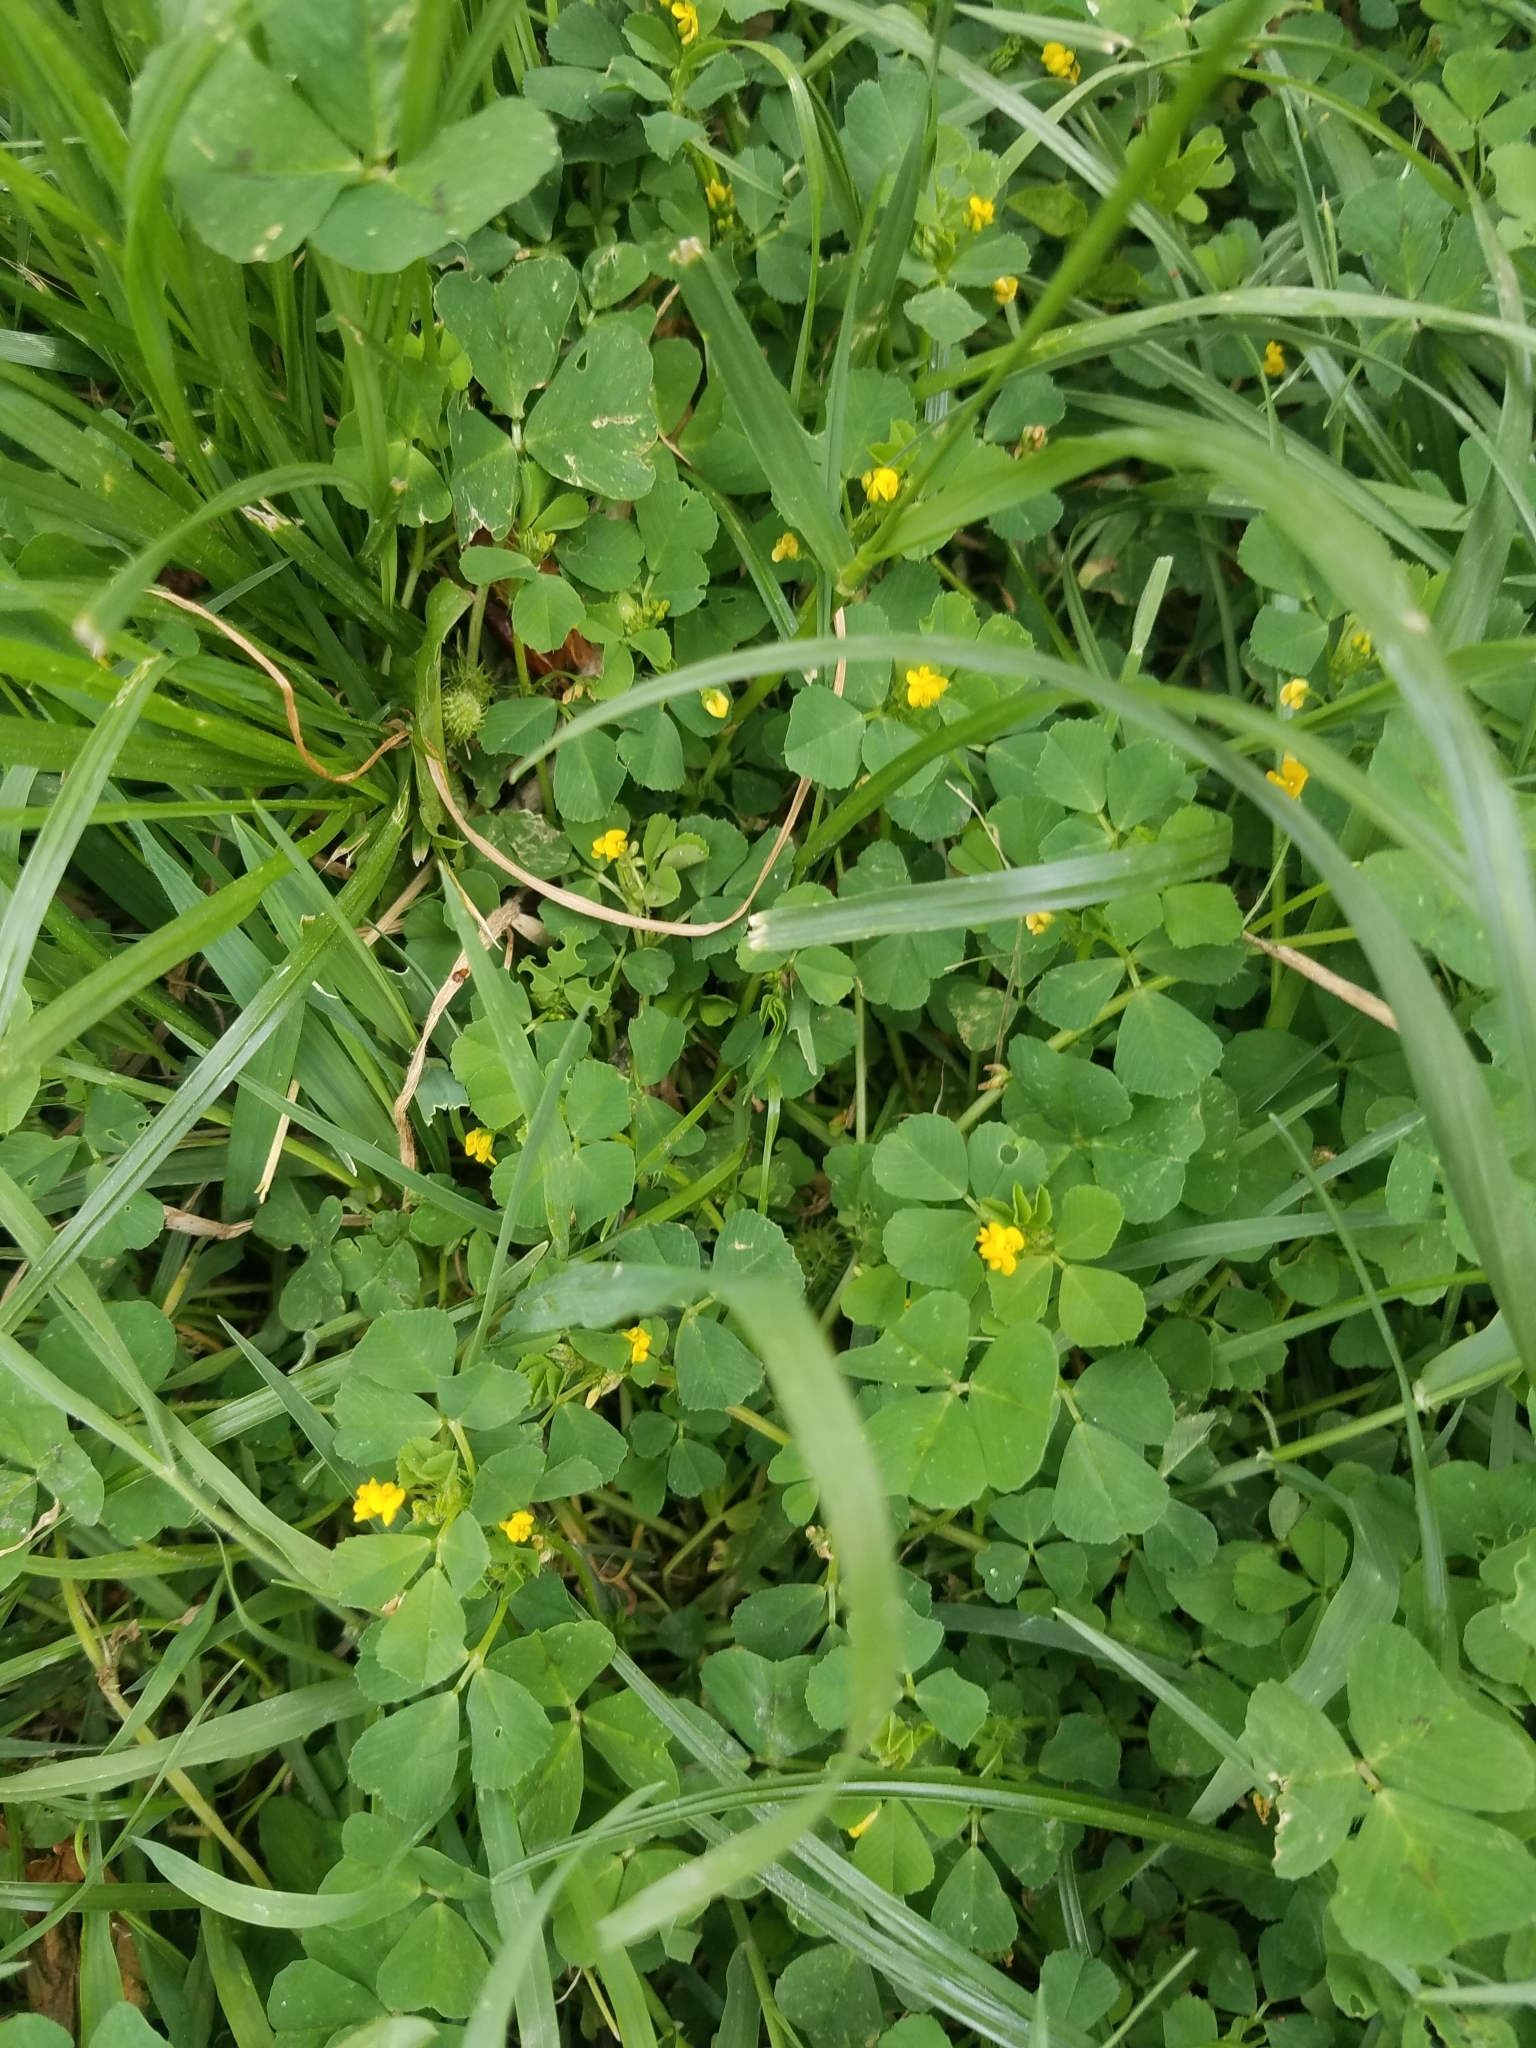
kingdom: Plantae
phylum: Tracheophyta
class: Magnoliopsida
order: Fabales
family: Fabaceae
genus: Medicago
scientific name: Medicago polymorpha
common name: Burclover
